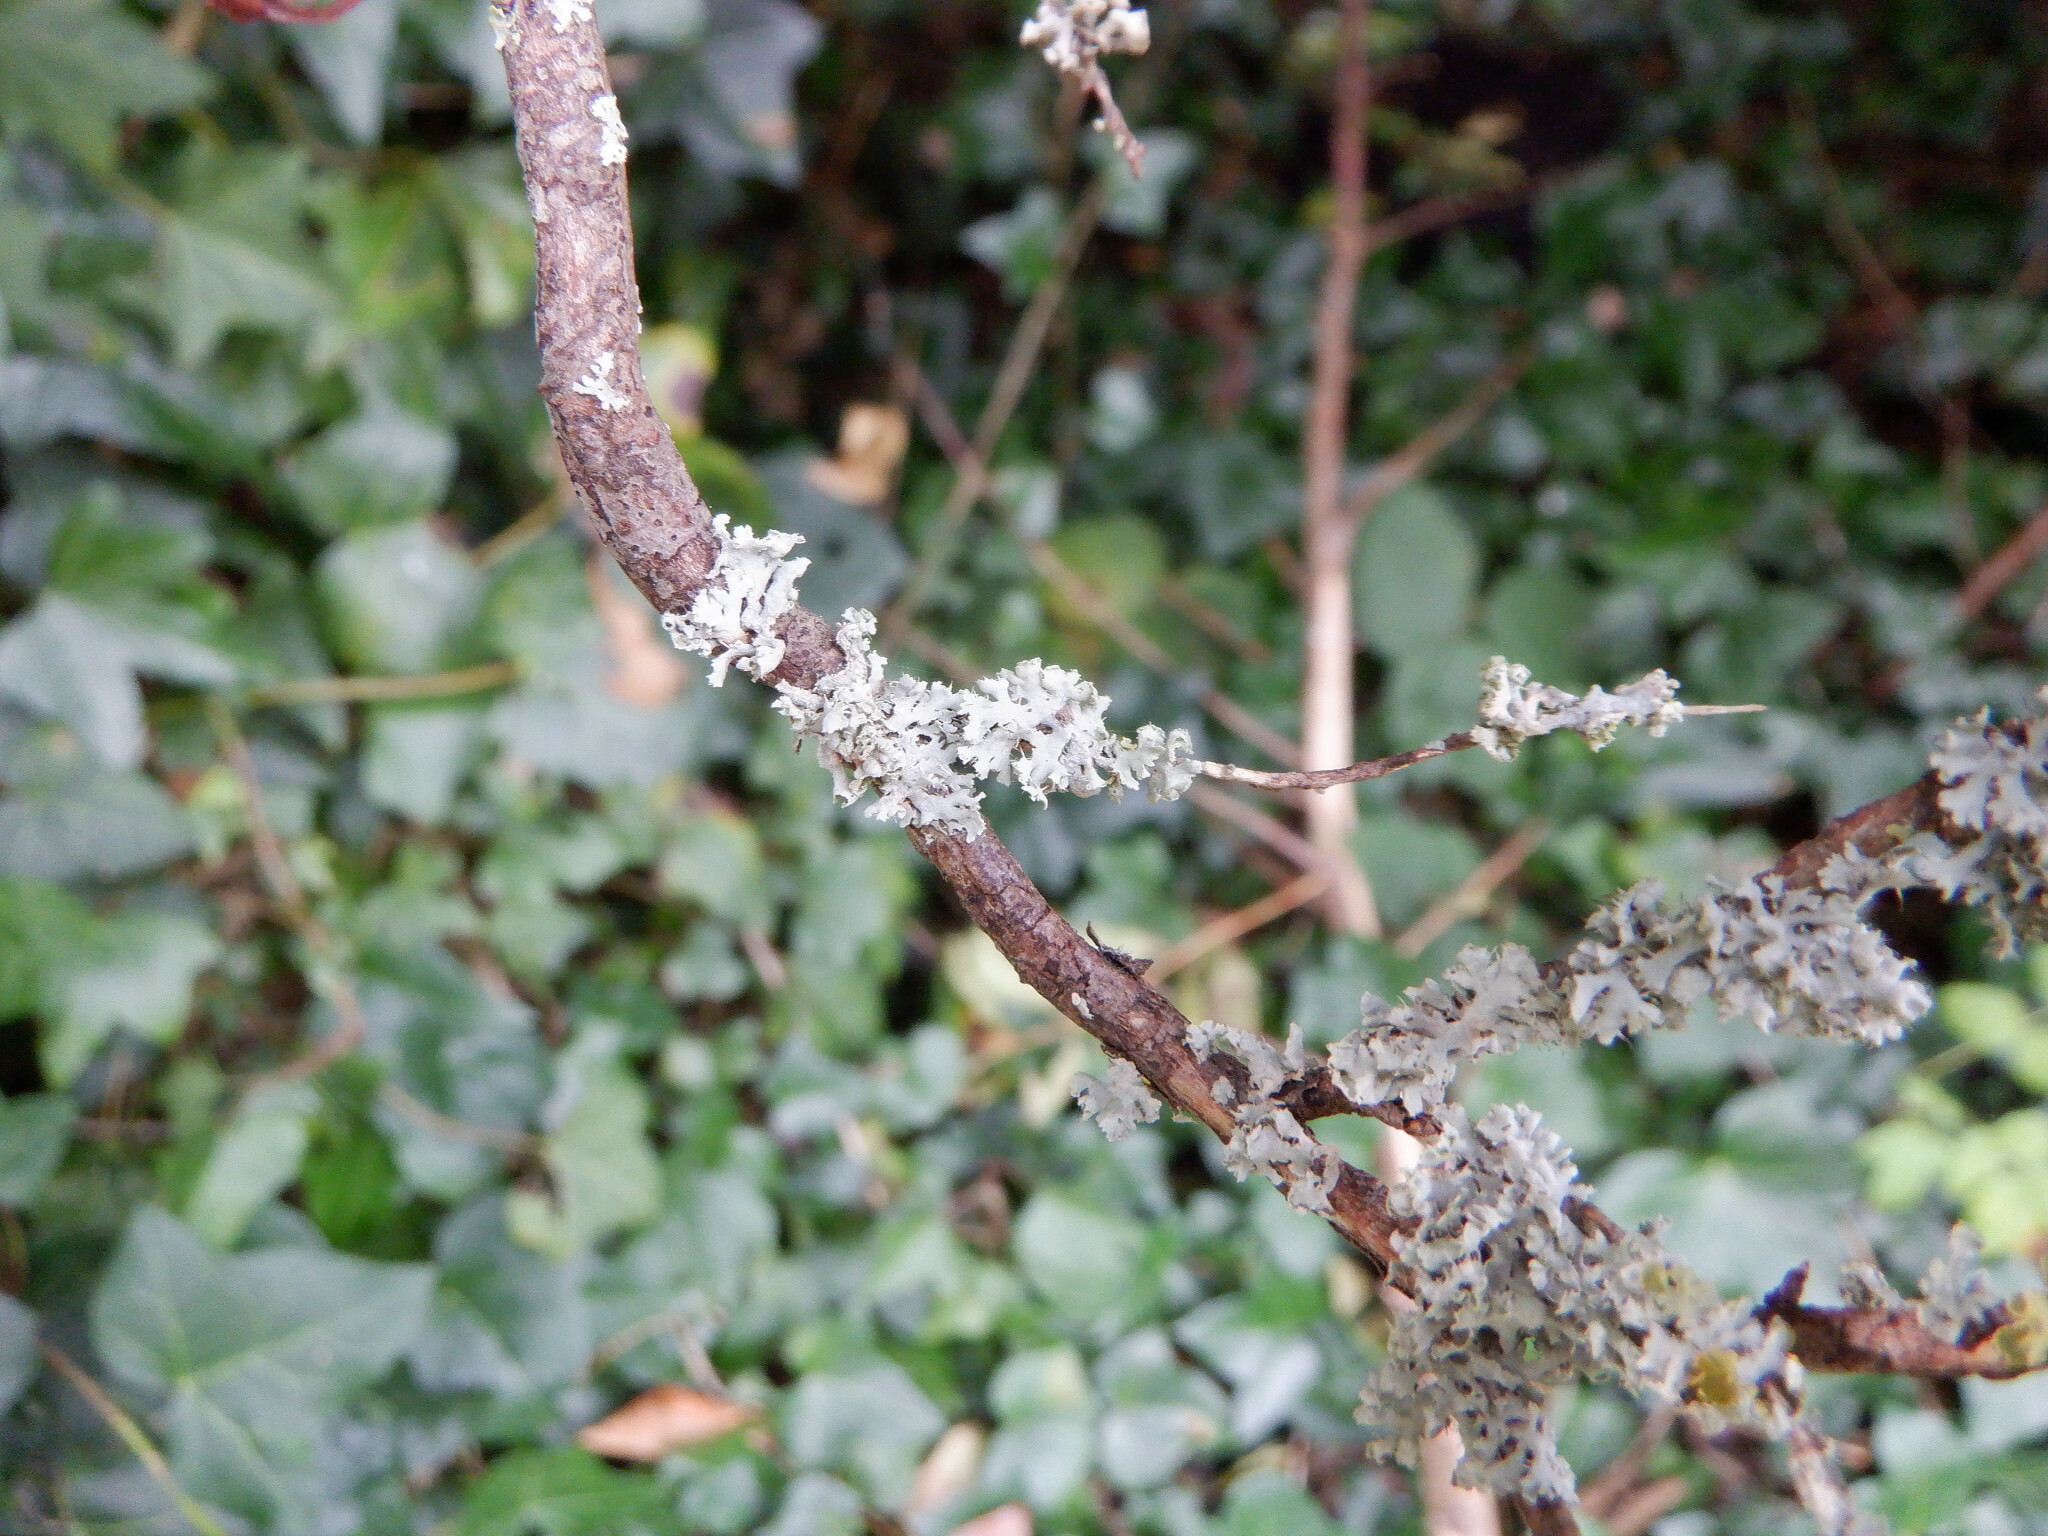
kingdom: Fungi
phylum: Ascomycota
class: Lecanoromycetes
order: Caliciales
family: Physciaceae
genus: Physcia
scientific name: Physcia adscendens
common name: Hooded rosette lichen
